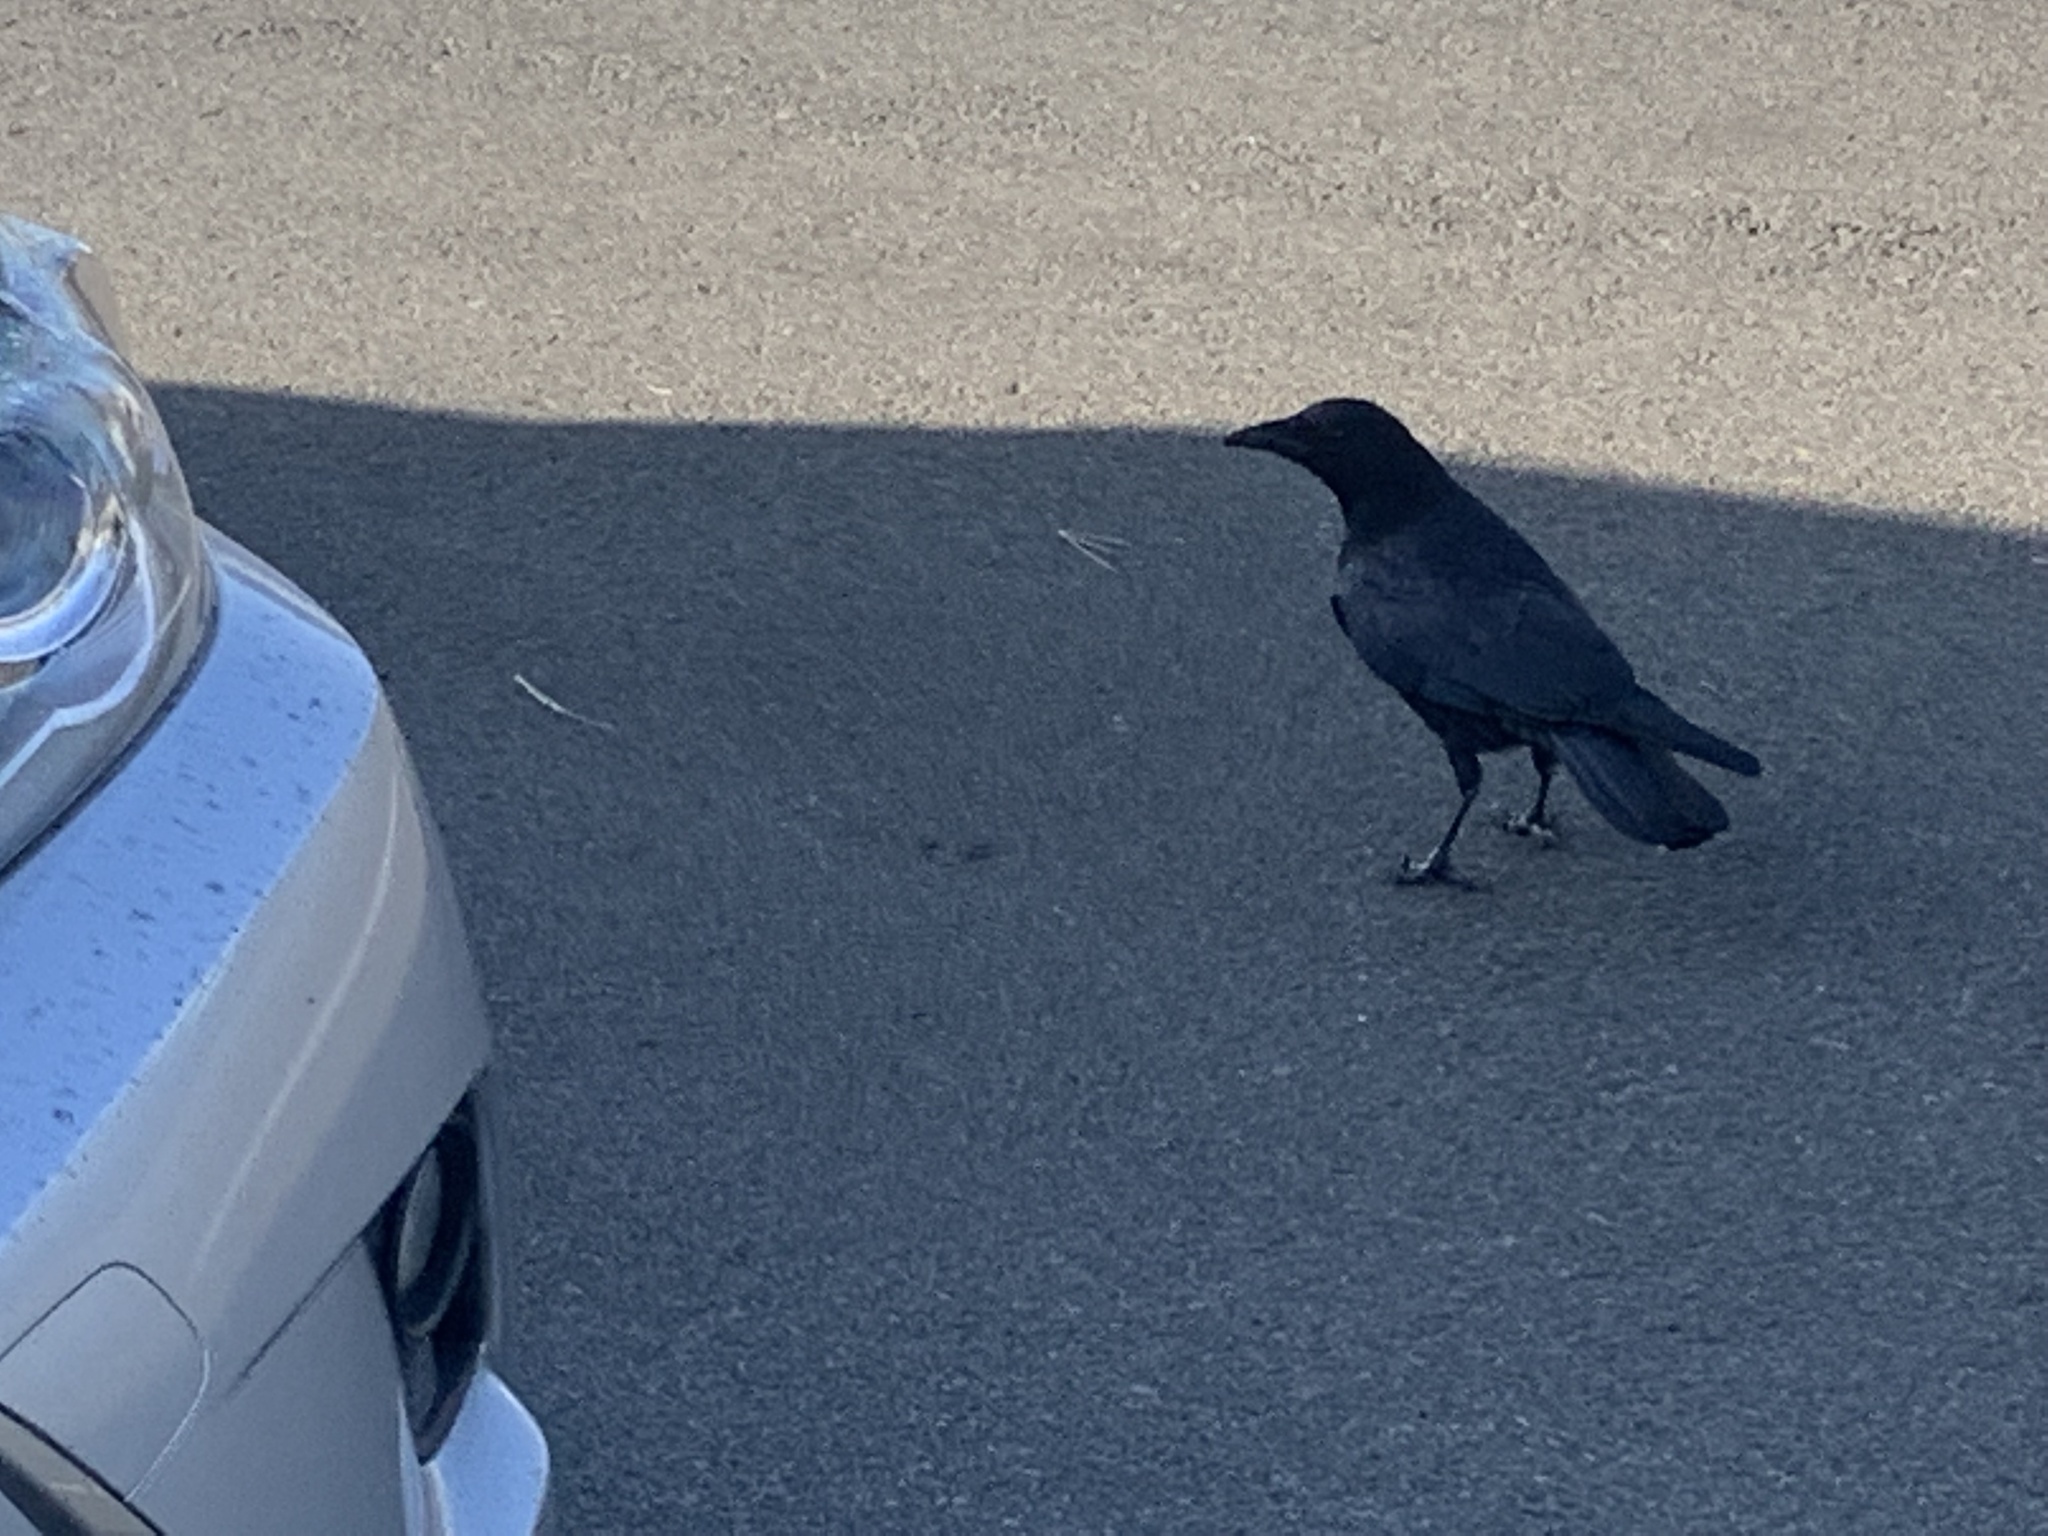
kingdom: Animalia
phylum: Chordata
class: Aves
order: Passeriformes
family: Corvidae
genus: Corvus
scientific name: Corvus brachyrhynchos
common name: American crow
